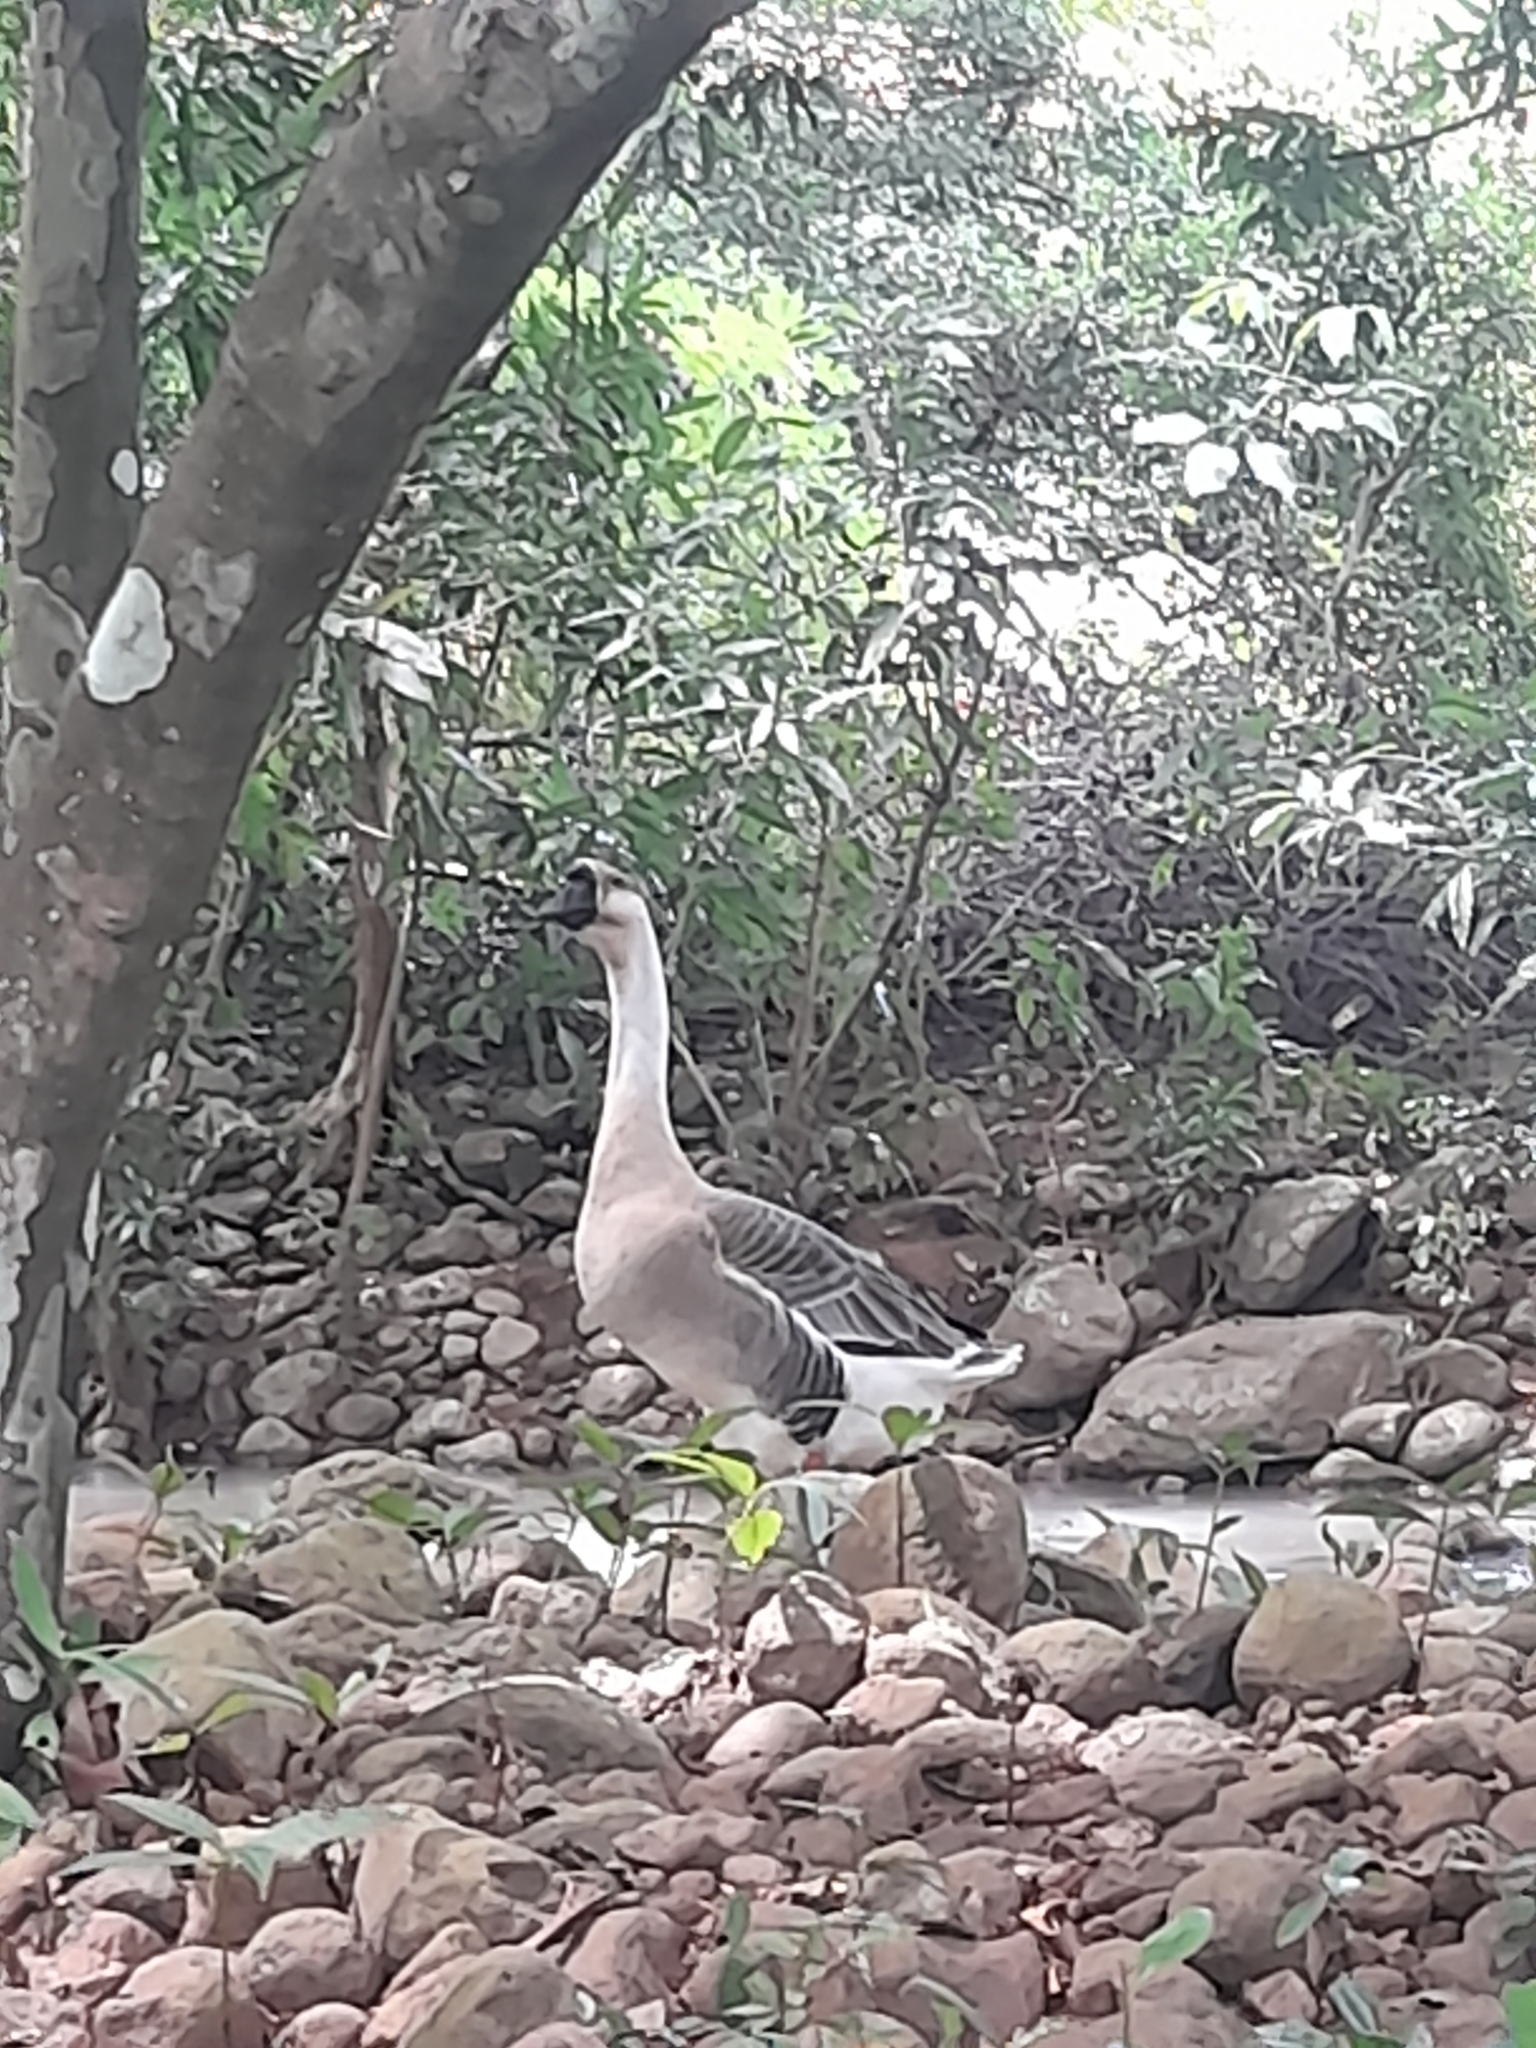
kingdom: Animalia
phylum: Chordata
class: Aves
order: Anseriformes
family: Anatidae
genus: Anser
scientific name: Anser cygnoides
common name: Swan goose
